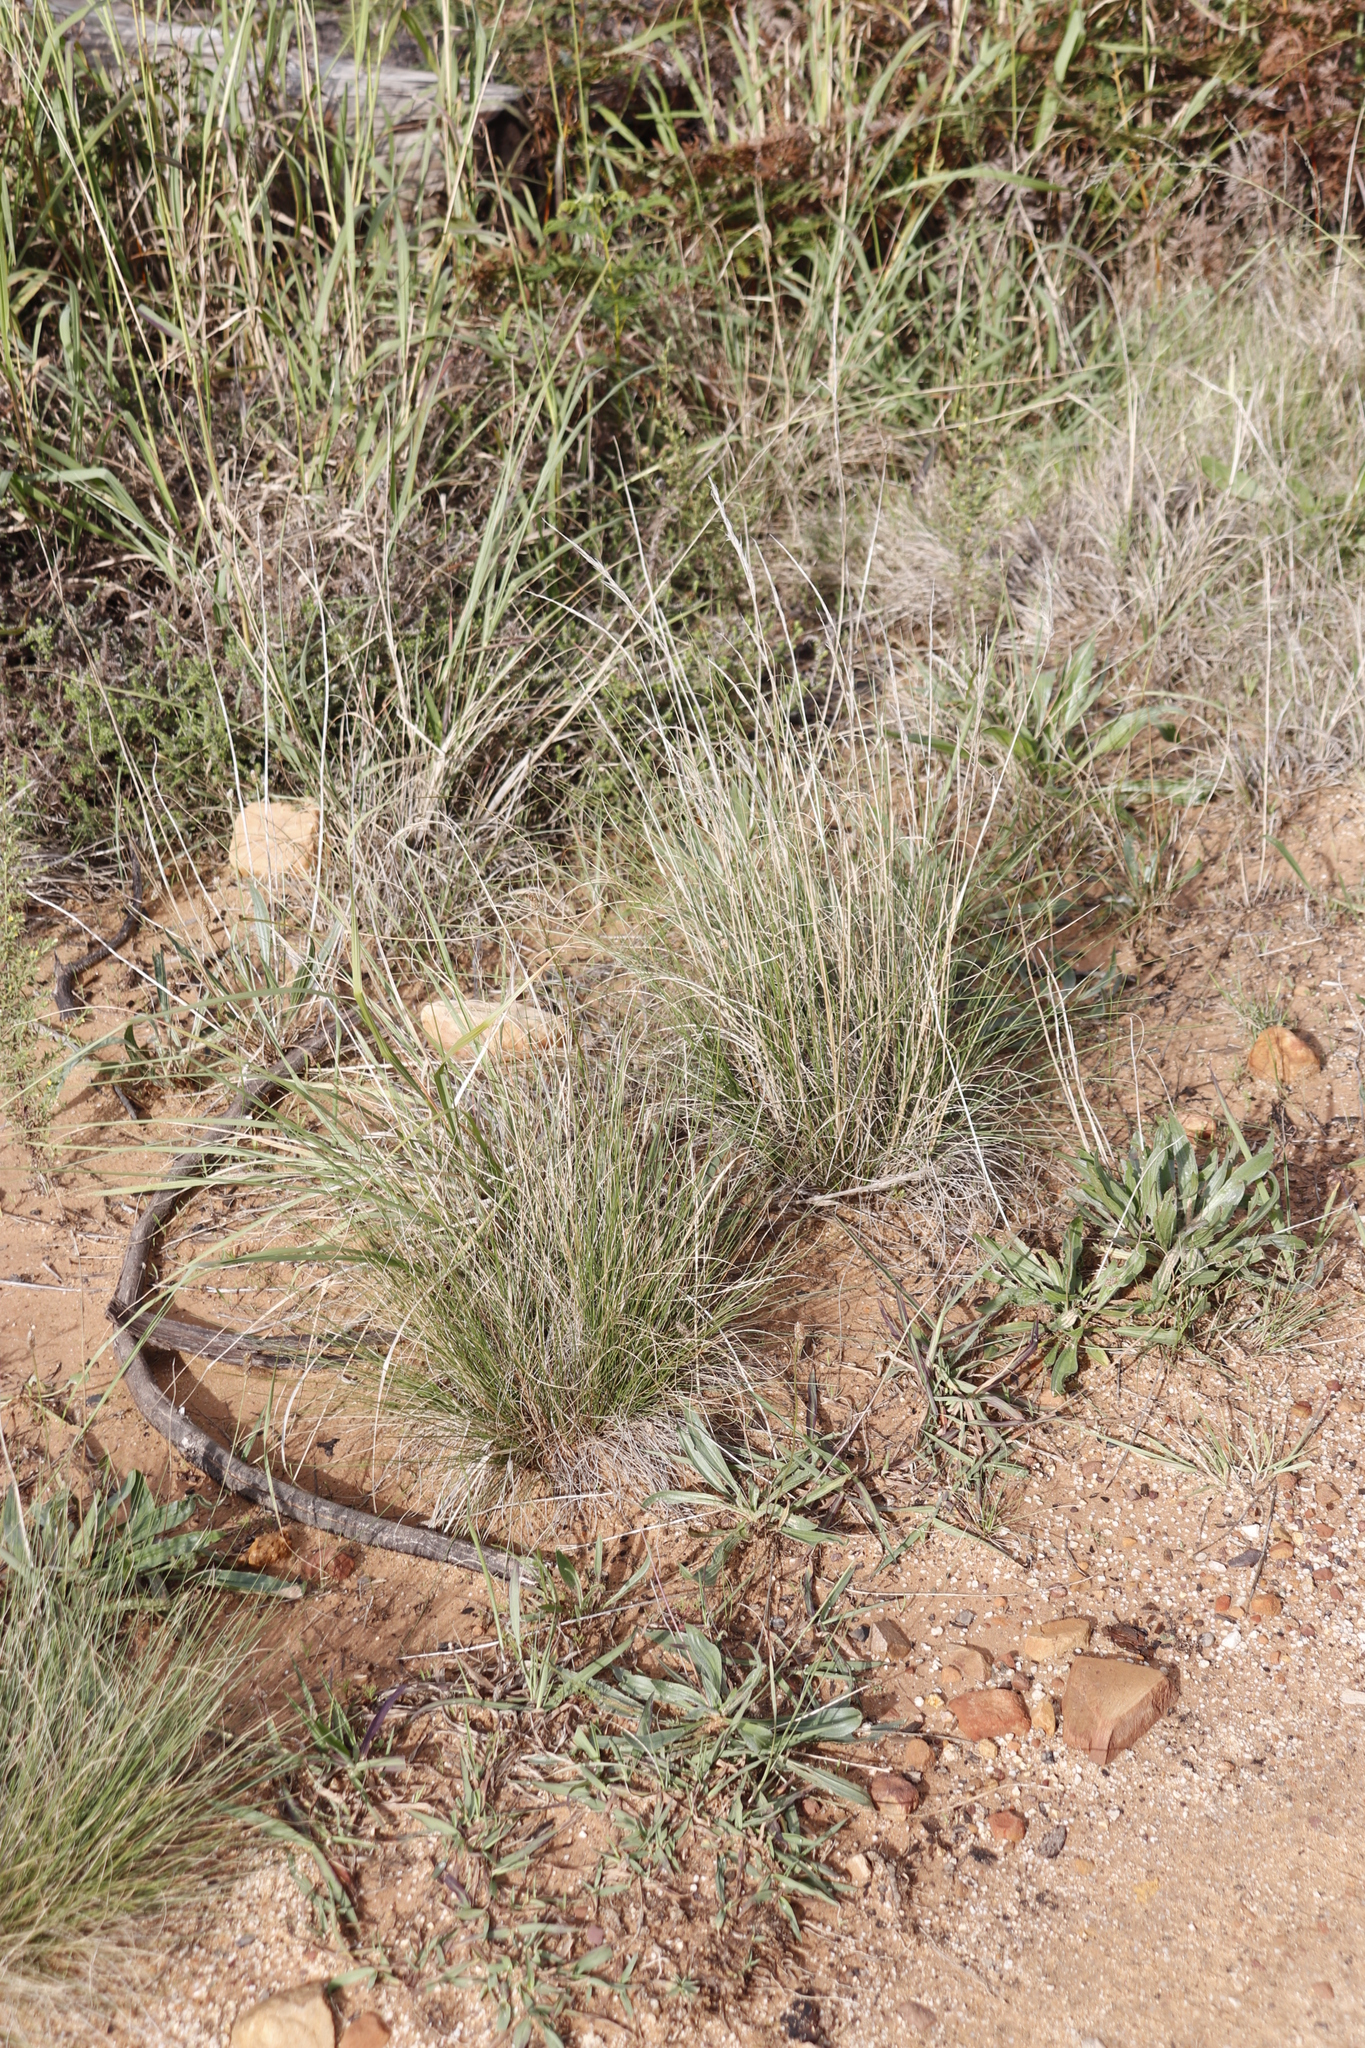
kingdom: Plantae
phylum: Tracheophyta
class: Liliopsida
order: Poales
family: Poaceae
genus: Paspalum
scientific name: Paspalum urvillei
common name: Vasey's grass
